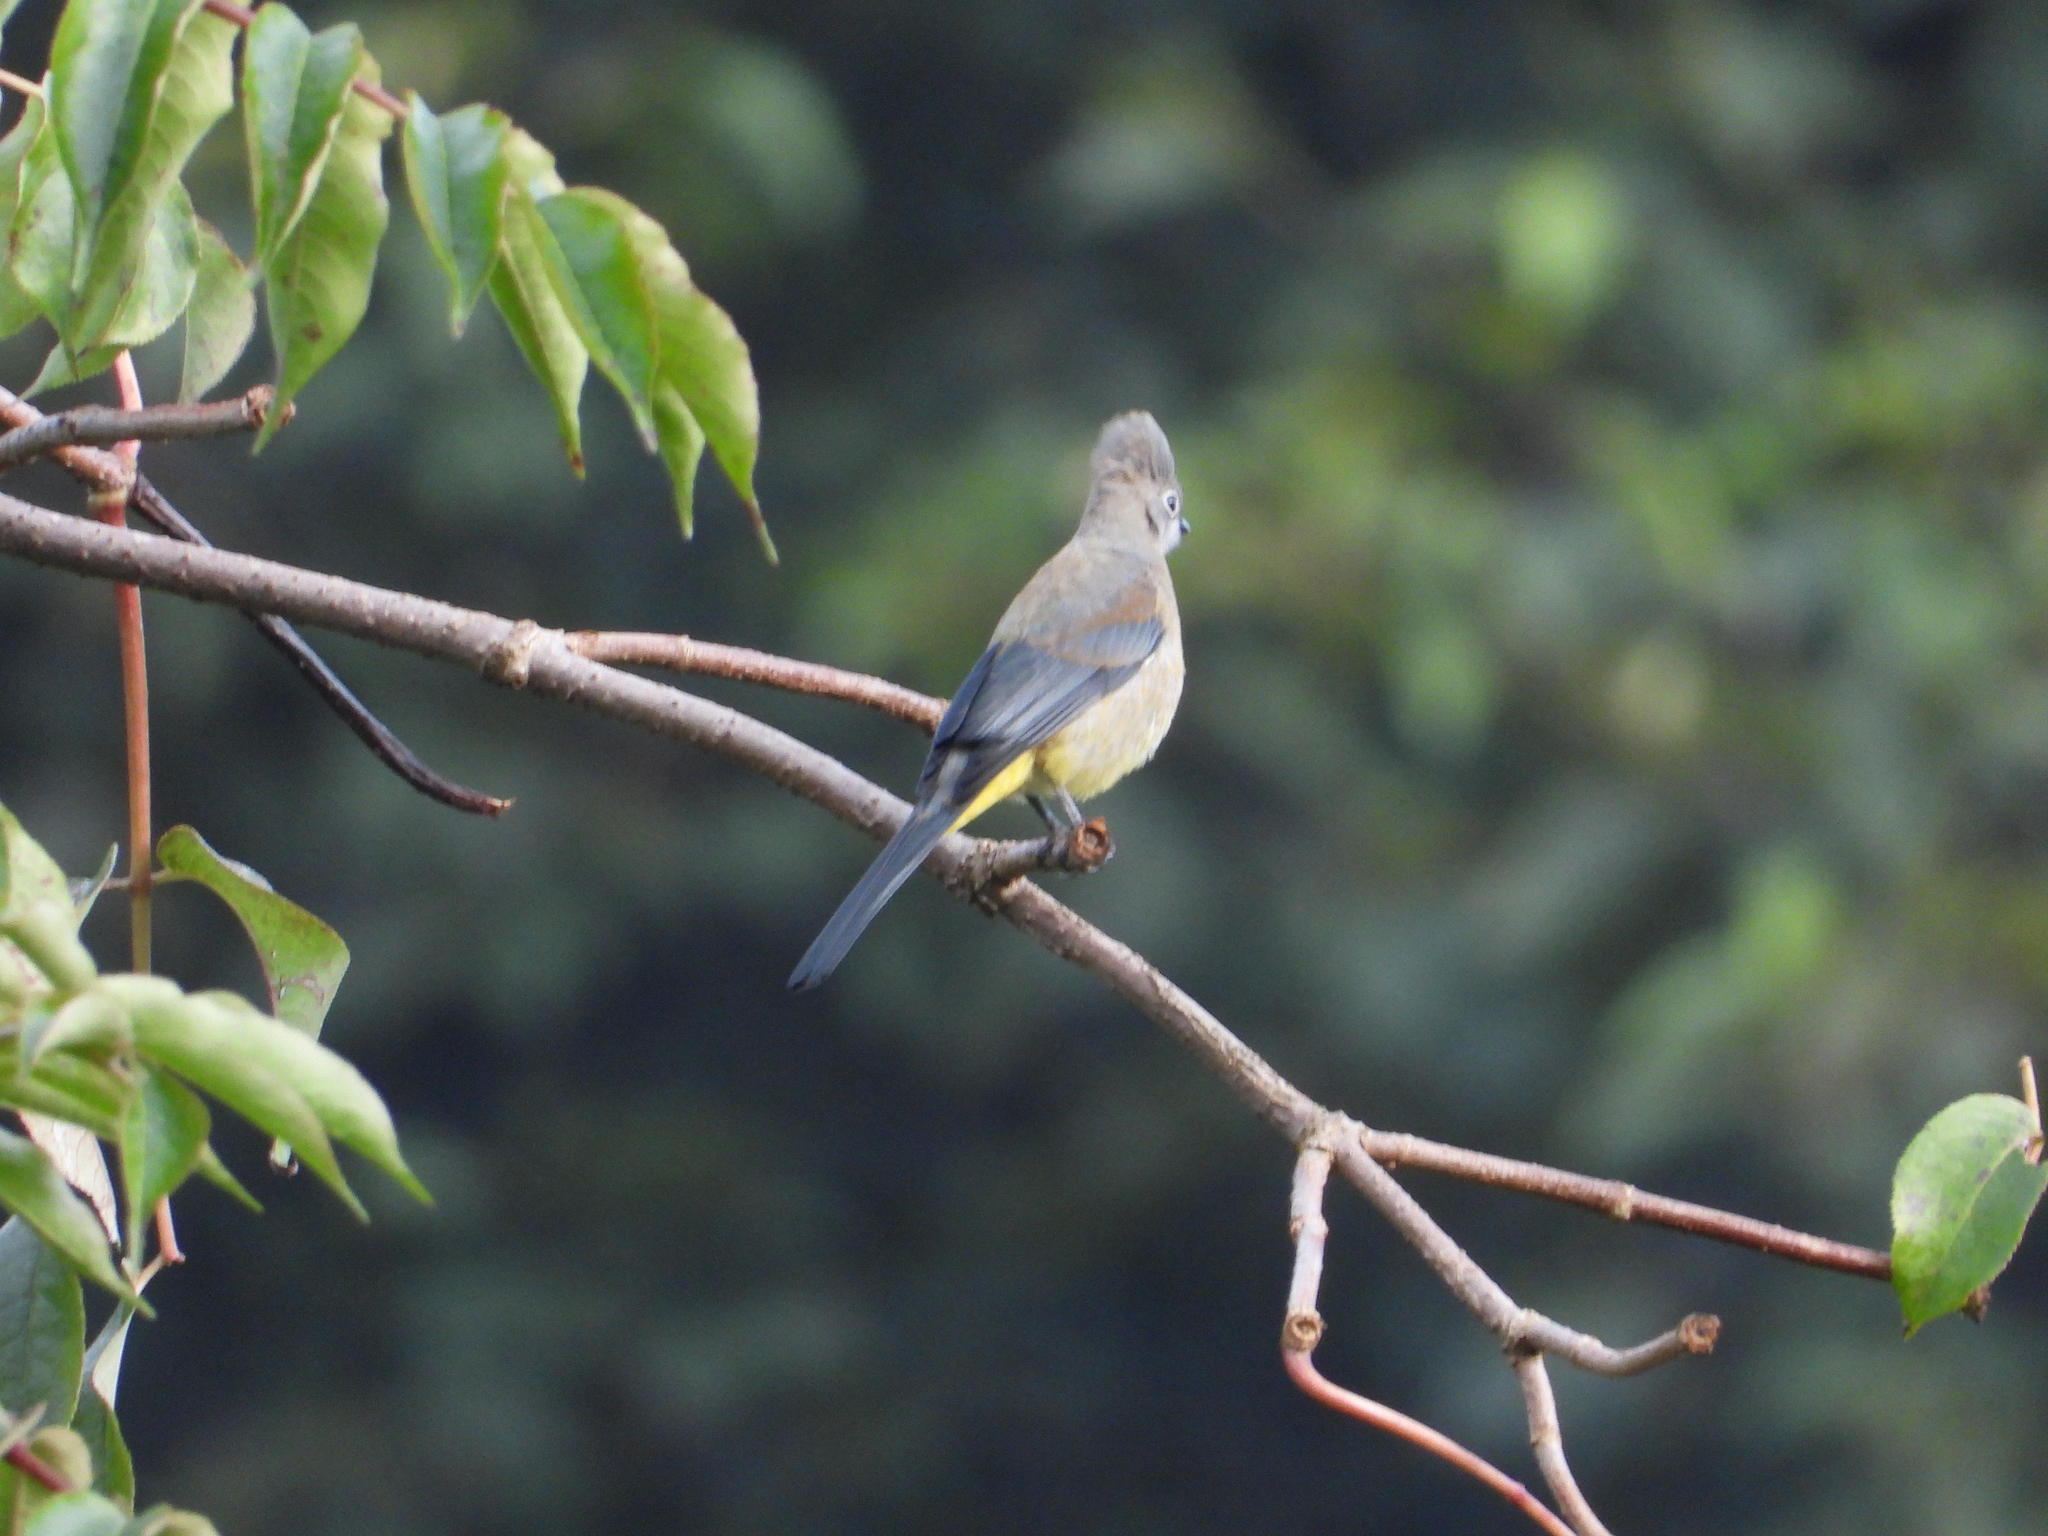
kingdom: Animalia
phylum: Chordata
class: Aves
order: Passeriformes
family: Ptilogonatidae
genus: Ptilogonys
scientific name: Ptilogonys cinereus
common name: Gray silky-flycatcher
